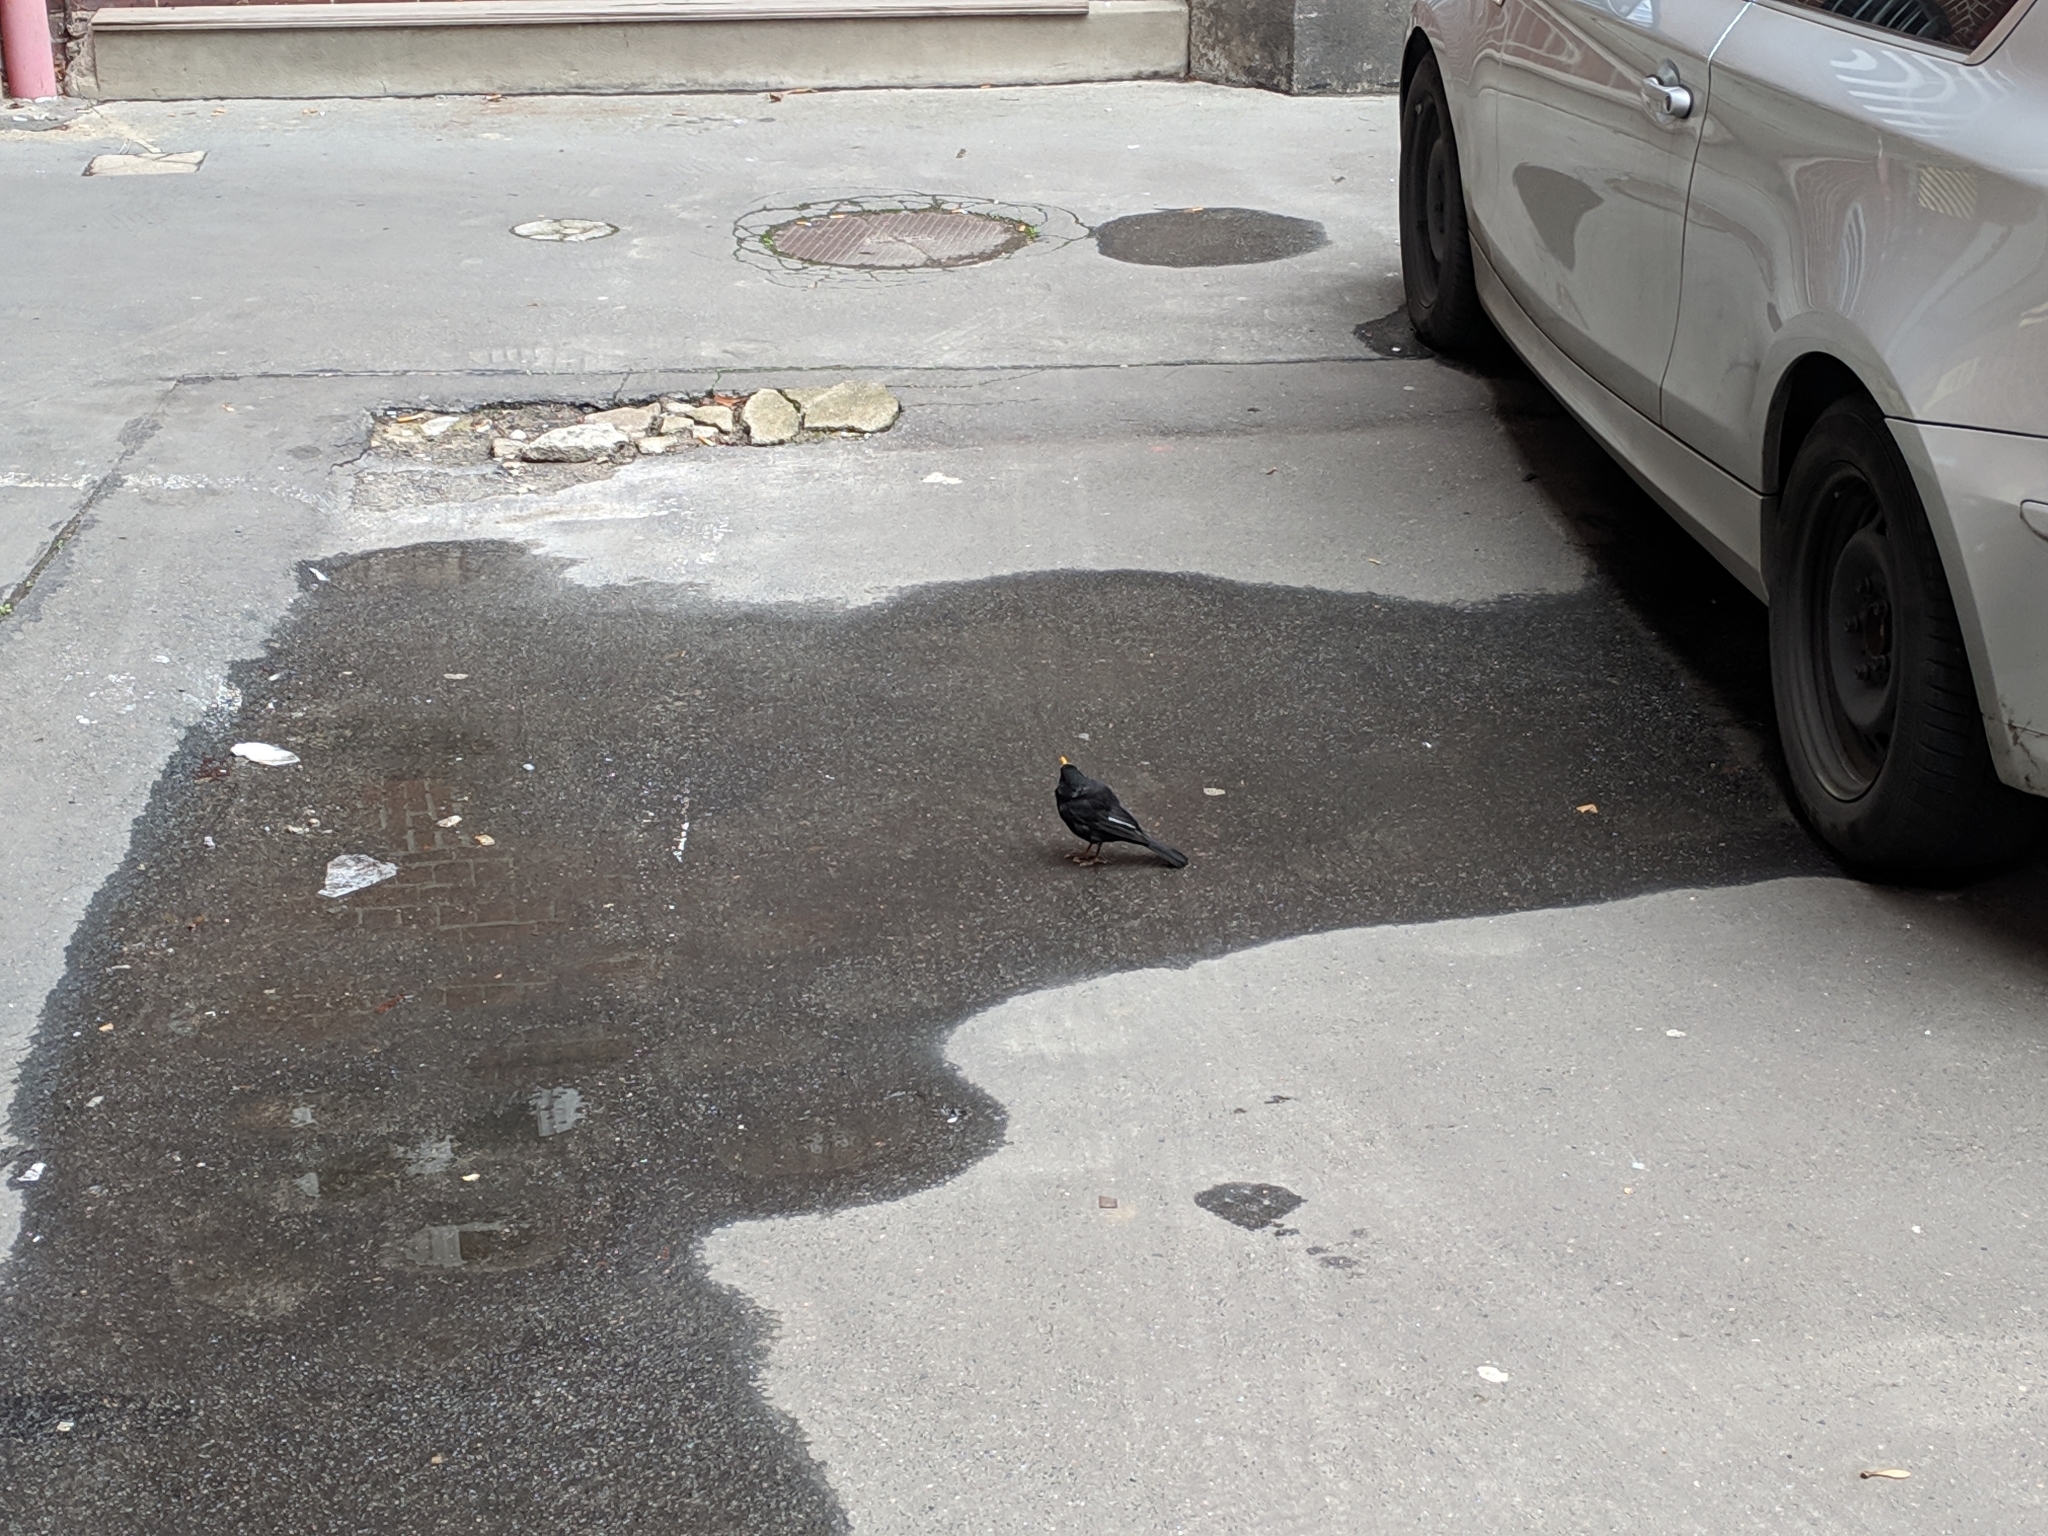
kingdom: Animalia
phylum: Chordata
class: Aves
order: Passeriformes
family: Turdidae
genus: Turdus
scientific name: Turdus merula
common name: Common blackbird
